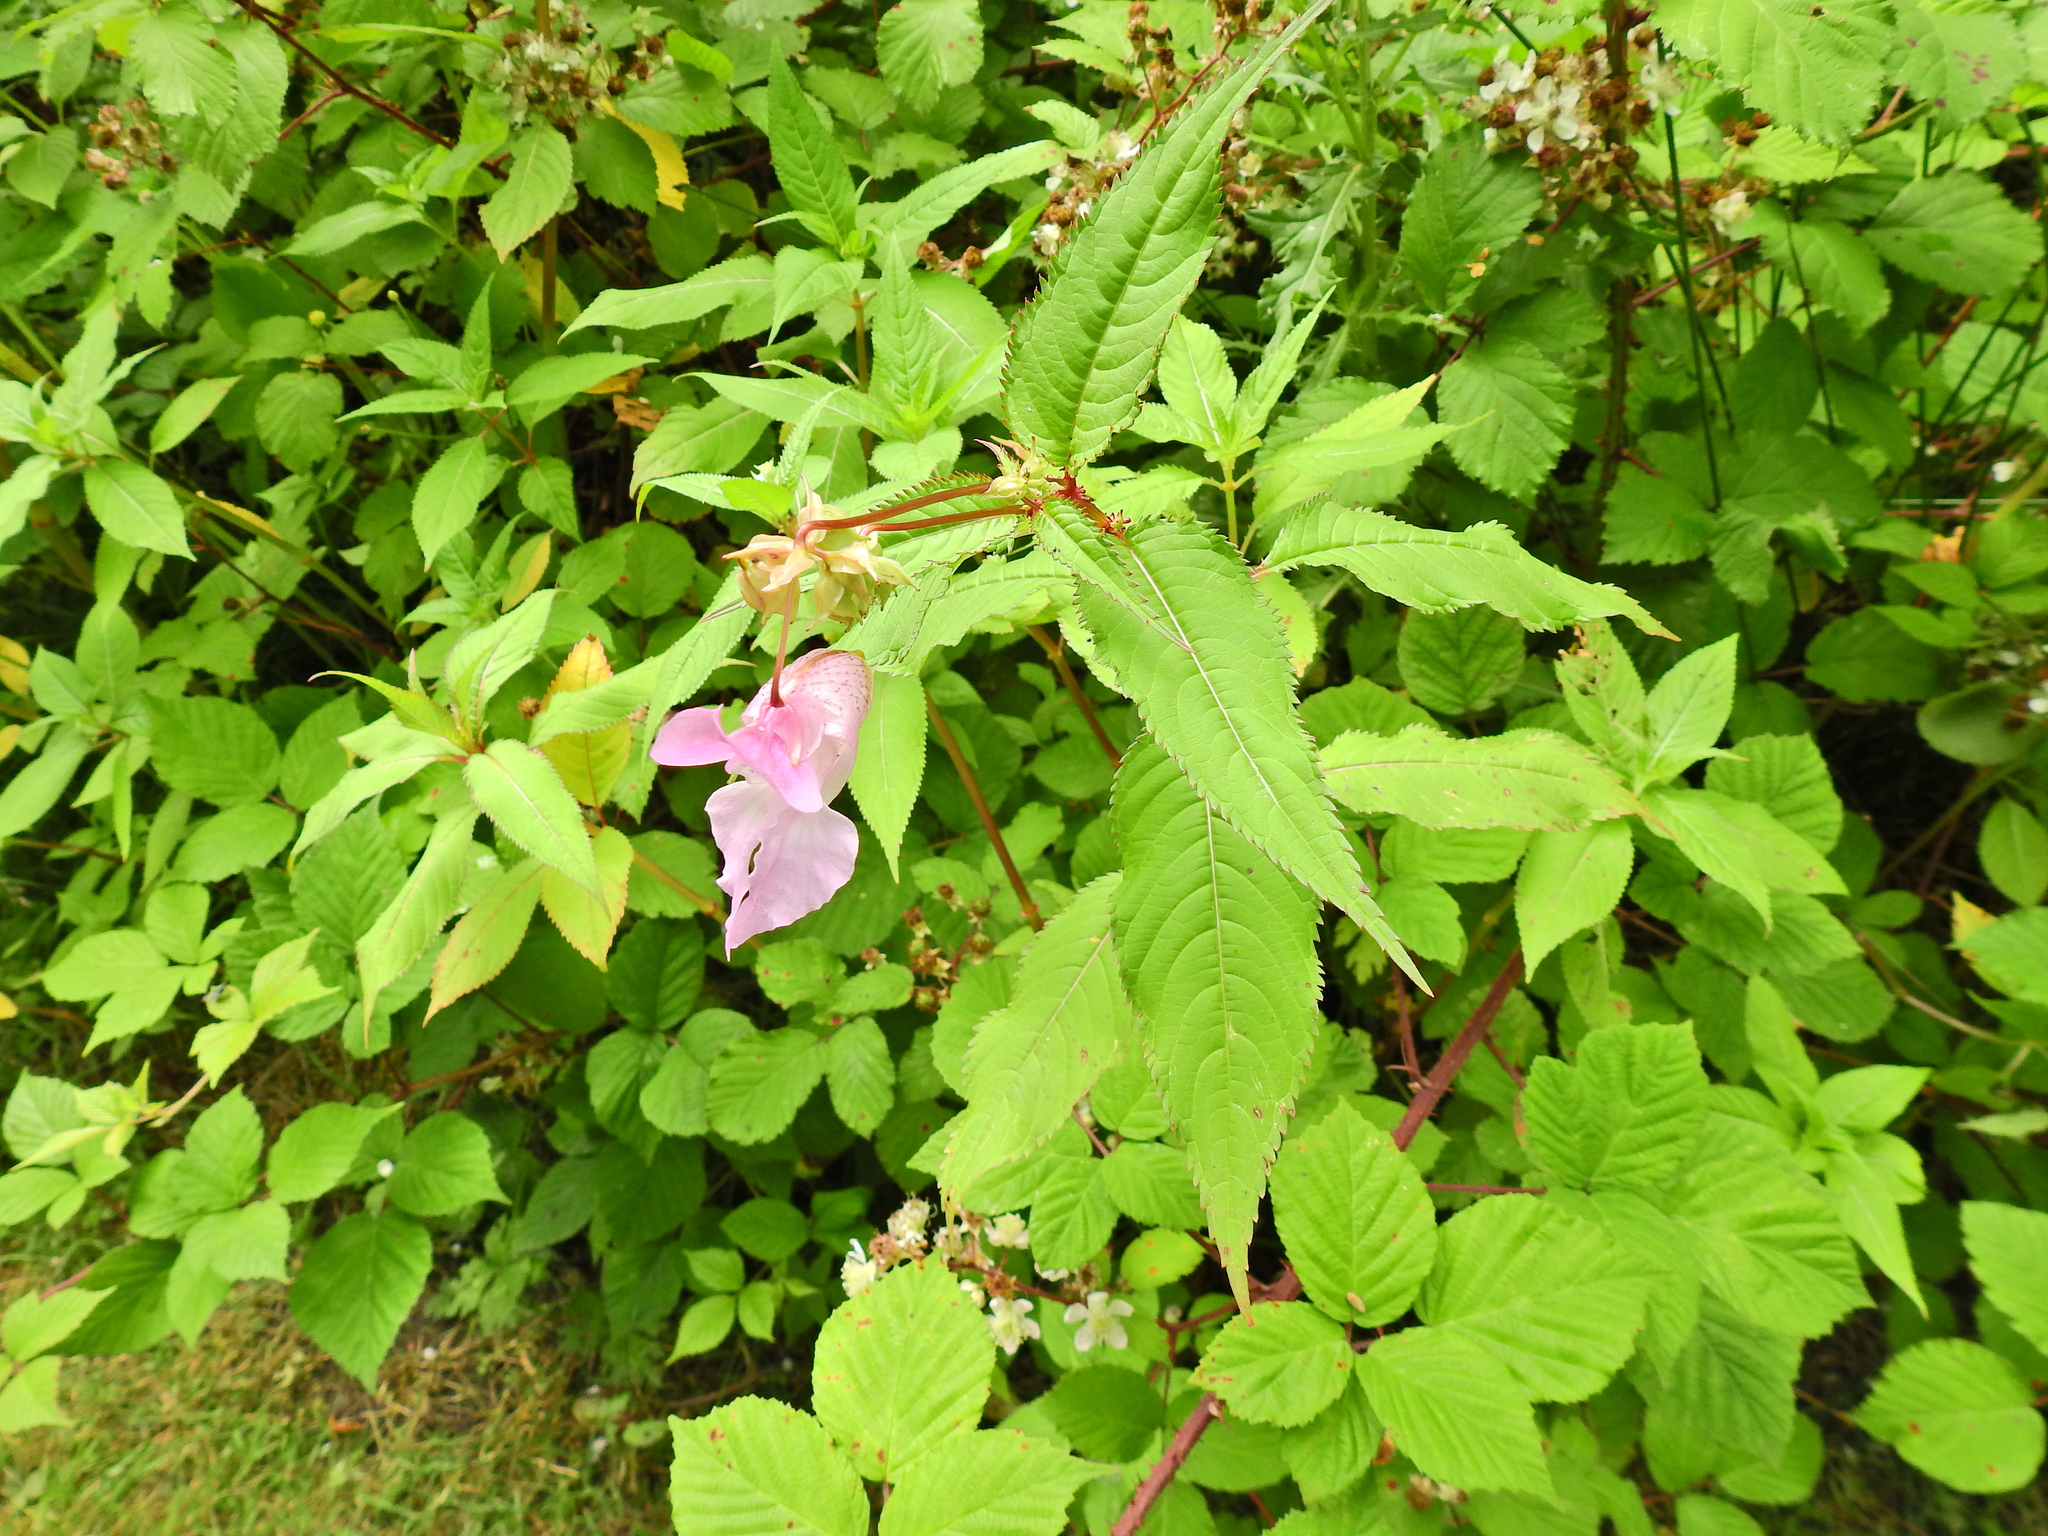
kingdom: Plantae
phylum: Tracheophyta
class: Magnoliopsida
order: Ericales
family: Balsaminaceae
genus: Impatiens
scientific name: Impatiens glandulifera
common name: Himalayan balsam
